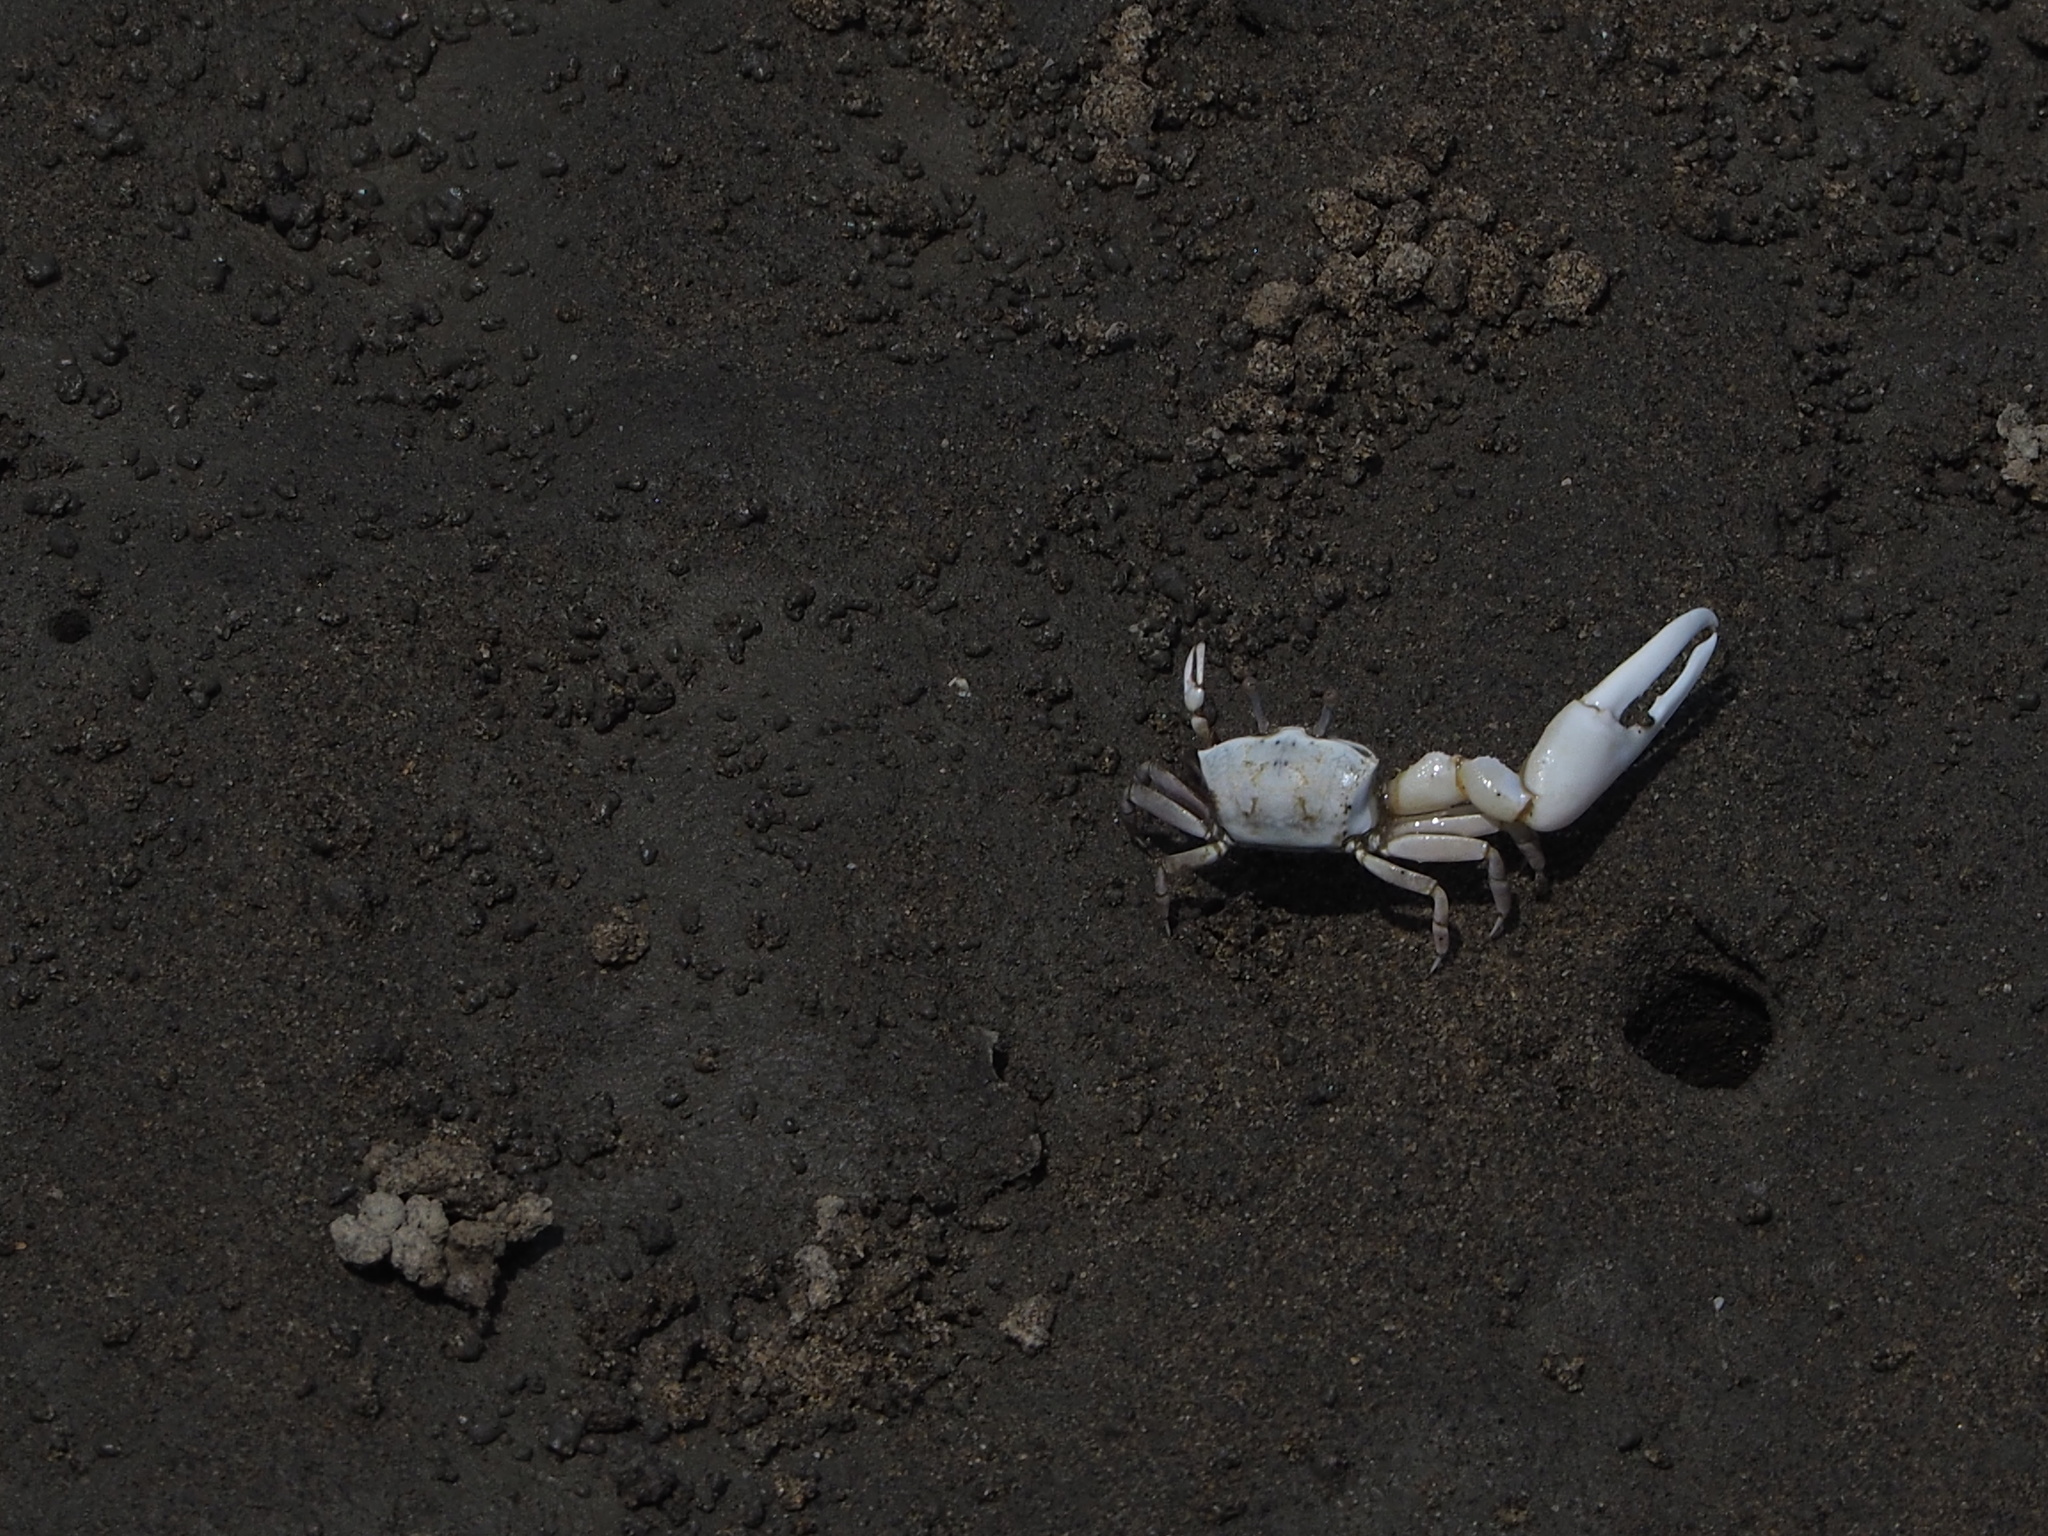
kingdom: Animalia
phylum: Arthropoda
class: Malacostraca
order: Decapoda
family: Ocypodidae
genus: Austruca
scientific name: Austruca lactea
